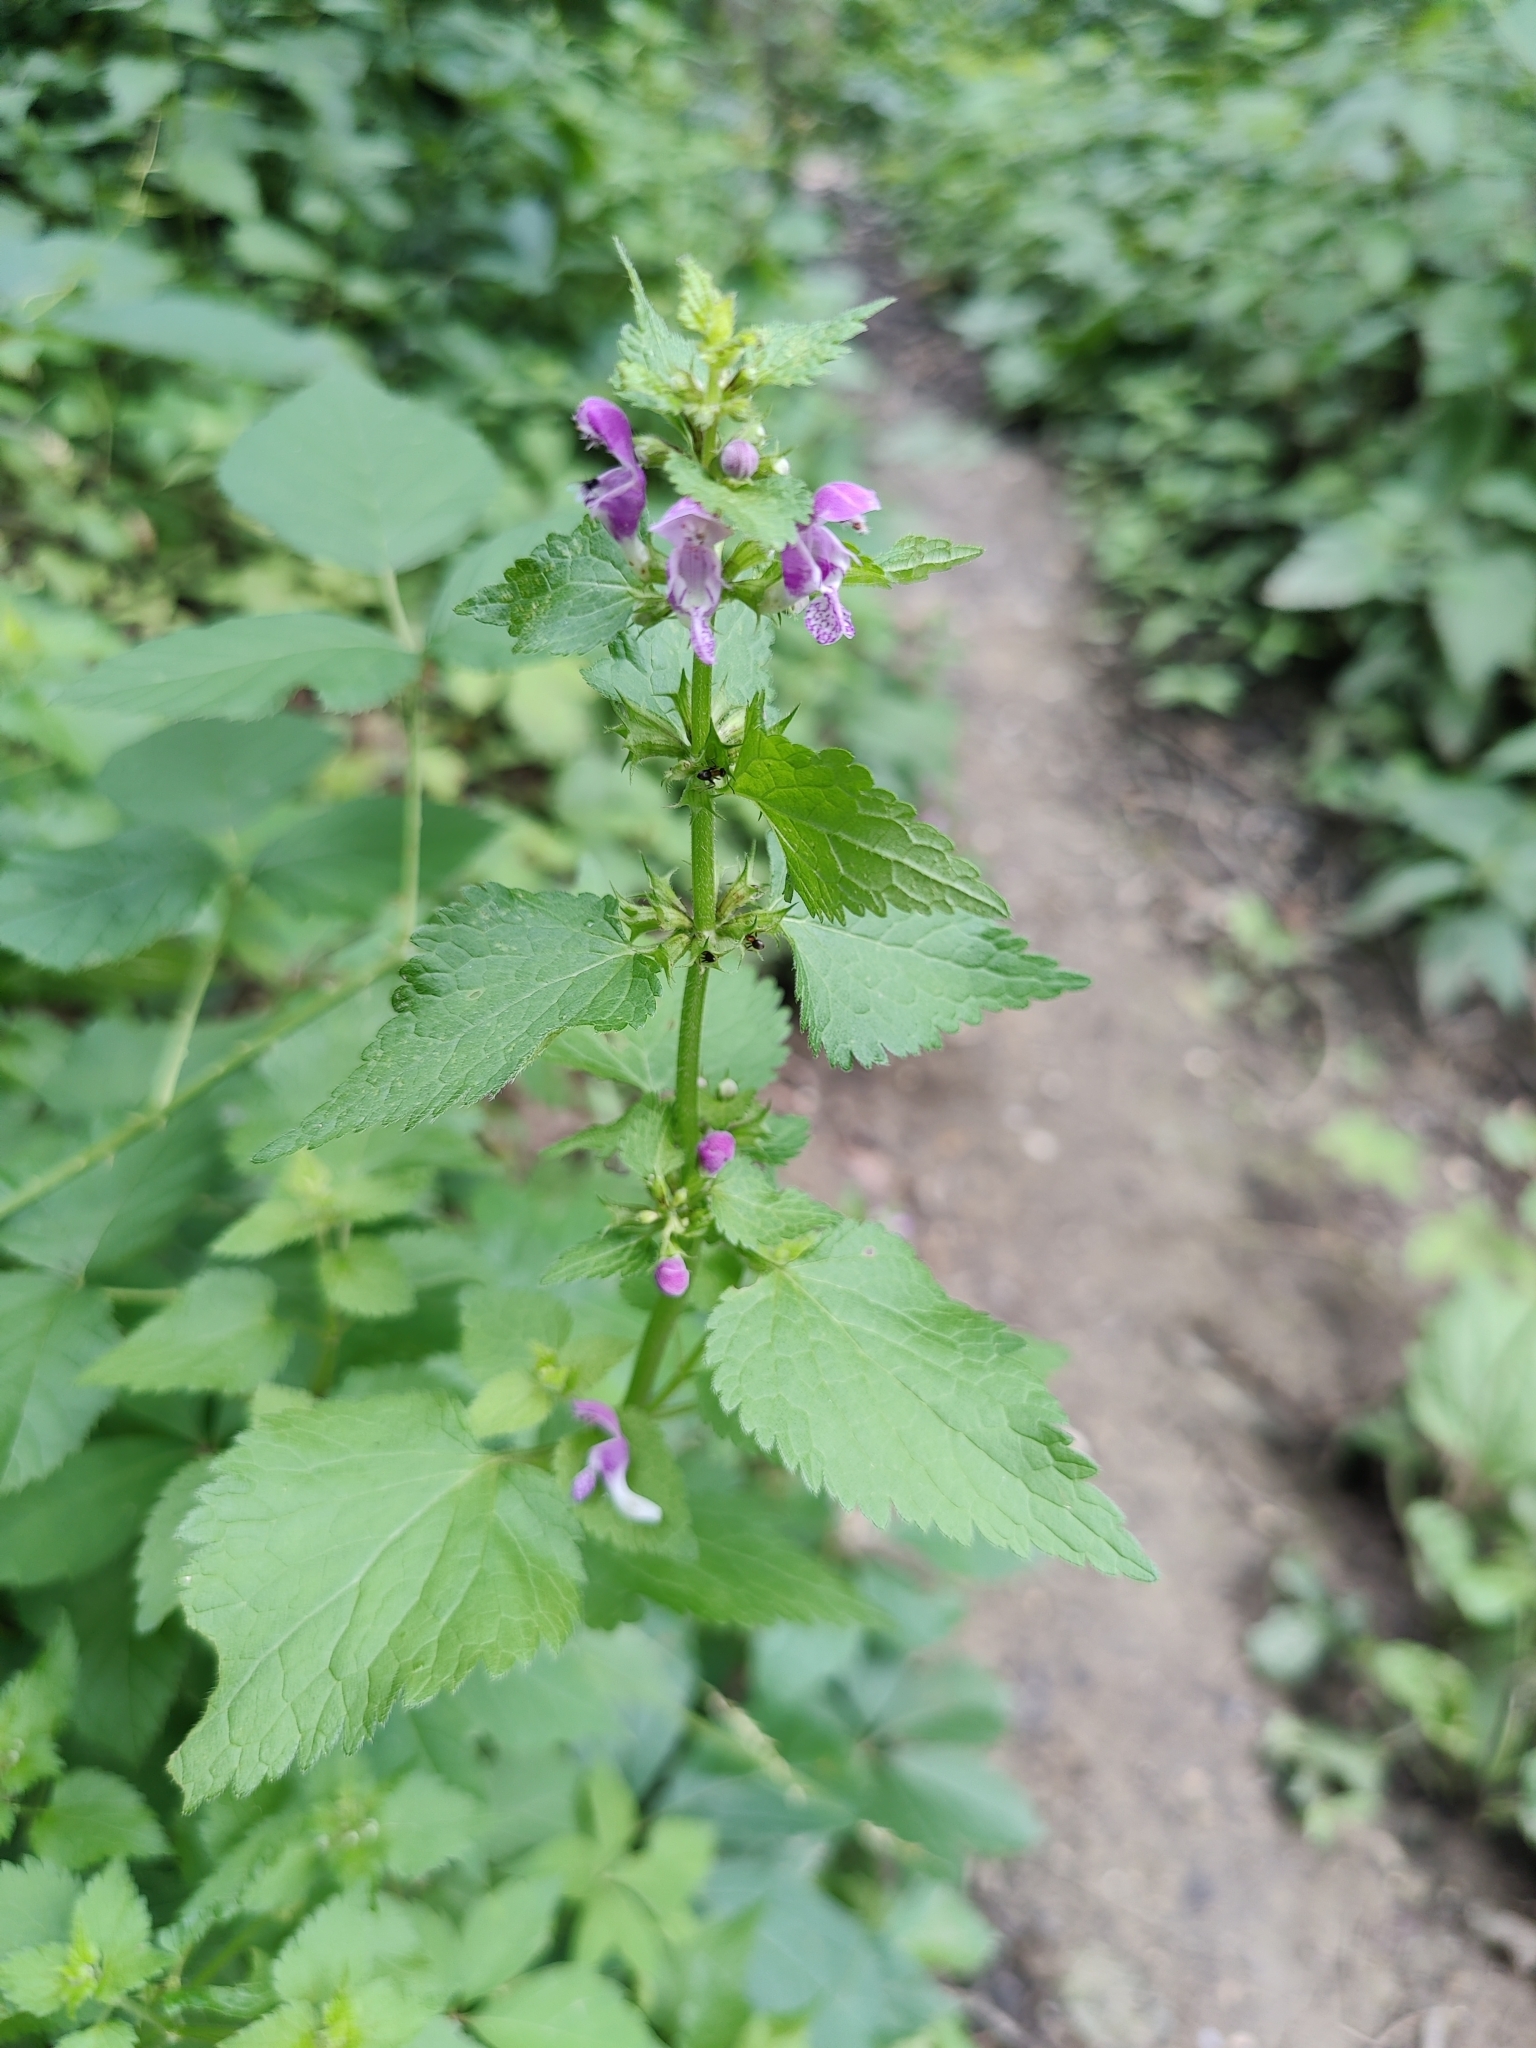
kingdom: Plantae
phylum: Tracheophyta
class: Magnoliopsida
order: Lamiales
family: Lamiaceae
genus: Lamium
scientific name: Lamium maculatum
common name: Spotted dead-nettle
